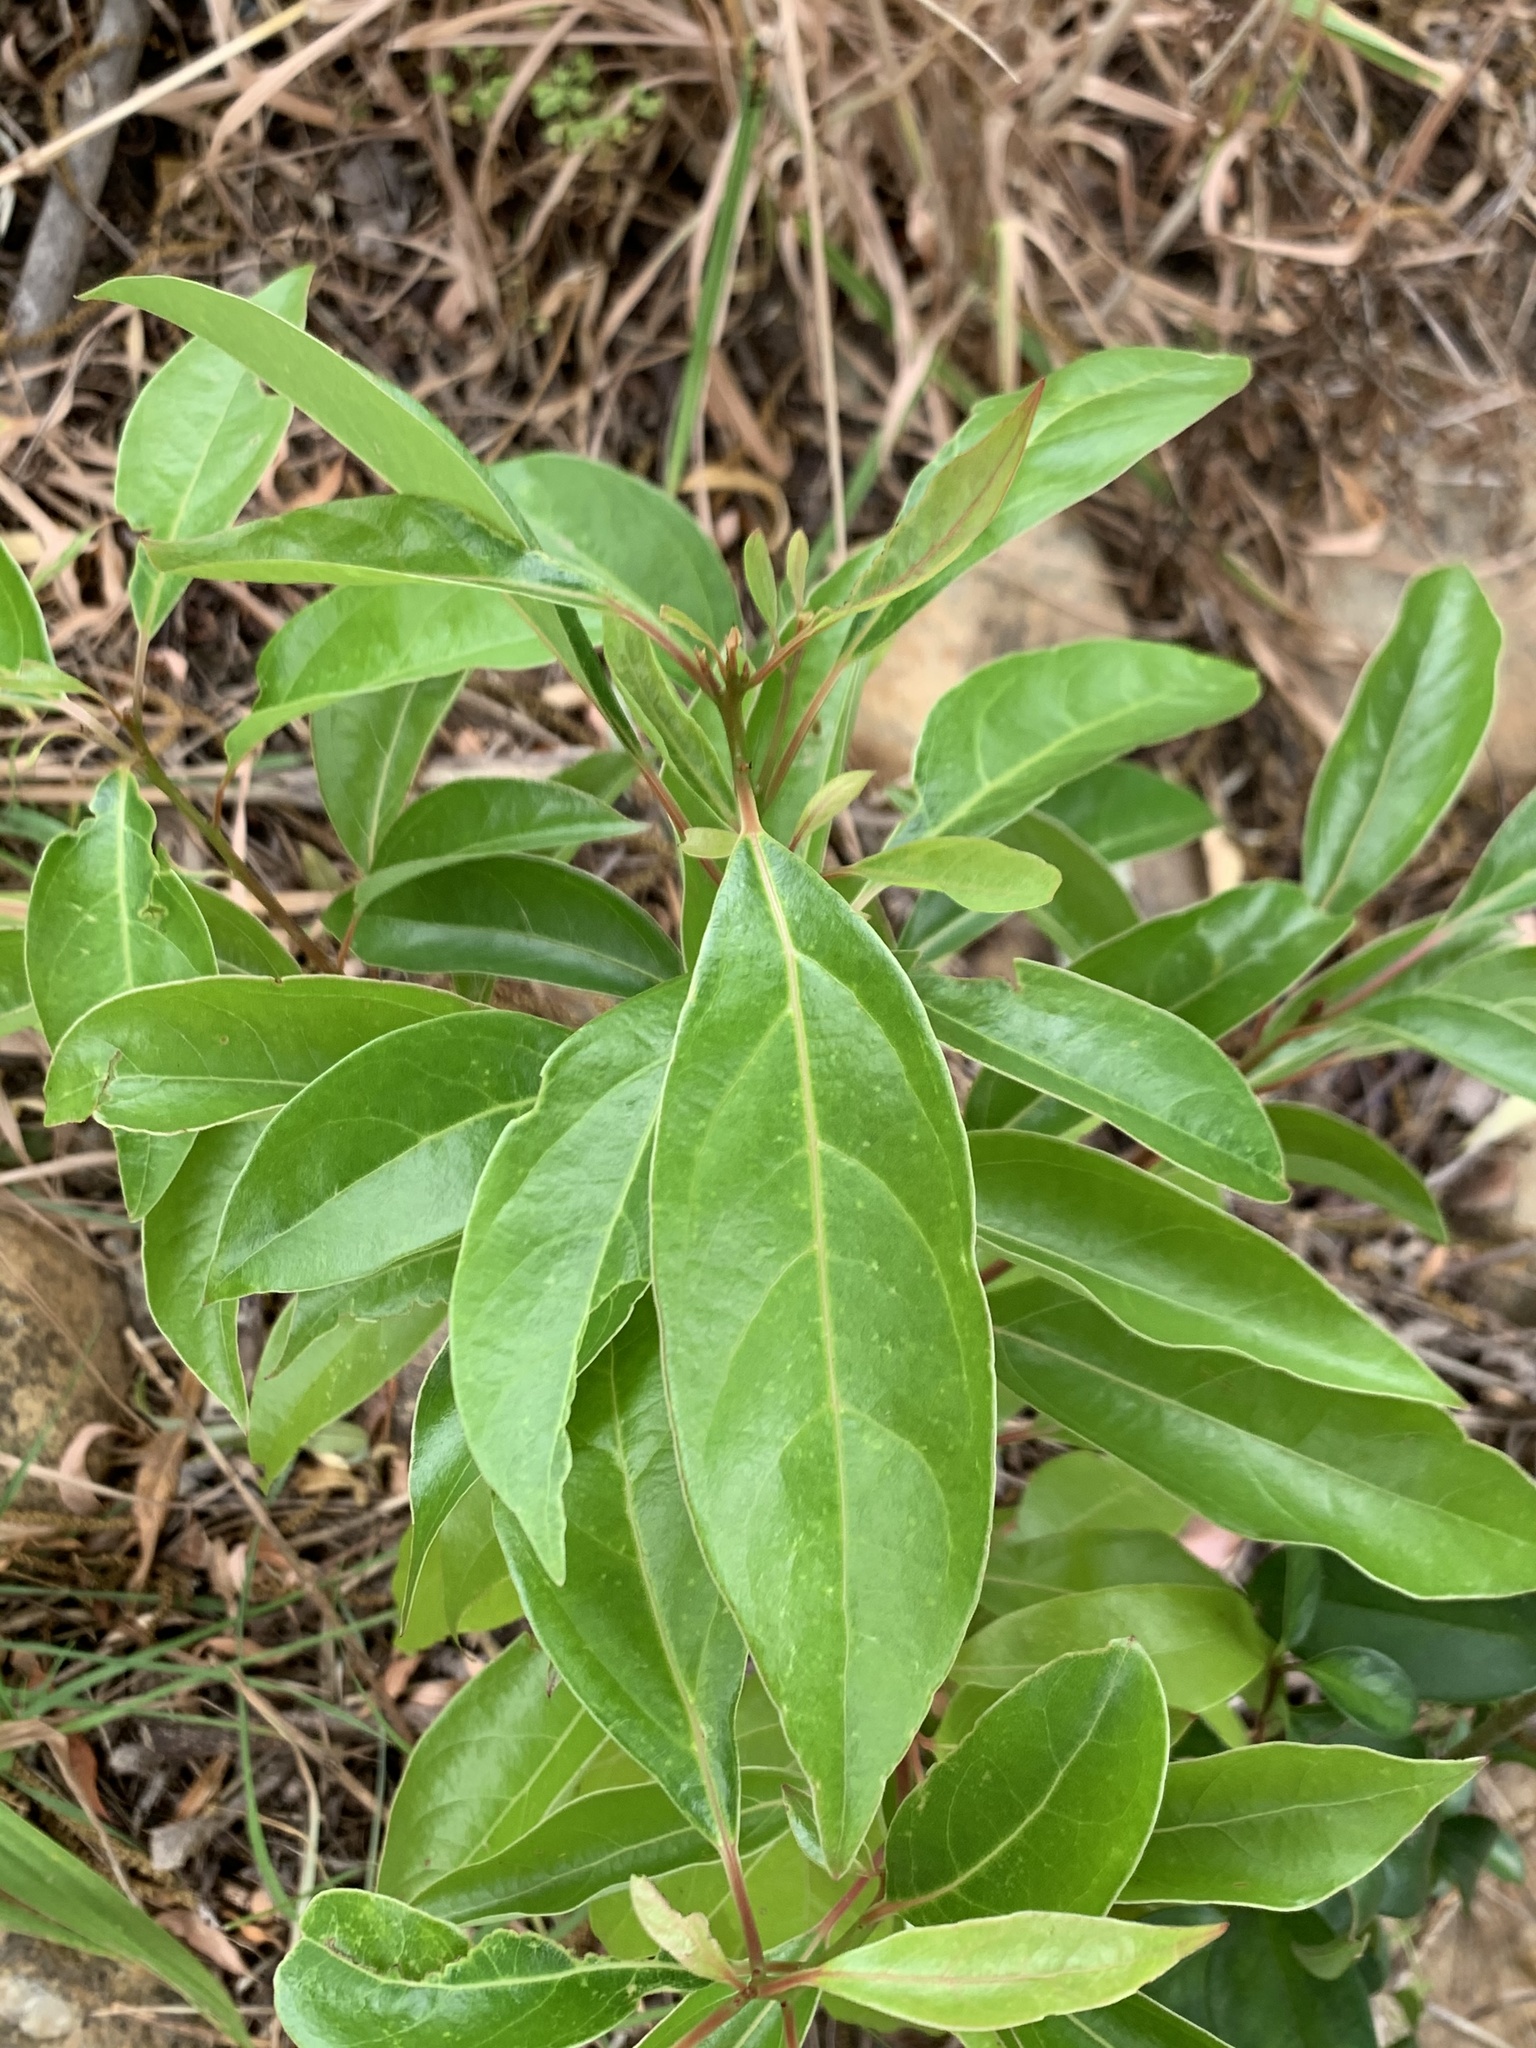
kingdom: Plantae
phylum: Tracheophyta
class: Magnoliopsida
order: Laurales
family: Lauraceae
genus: Cinnamomum
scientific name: Cinnamomum camphora
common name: Camphortree
